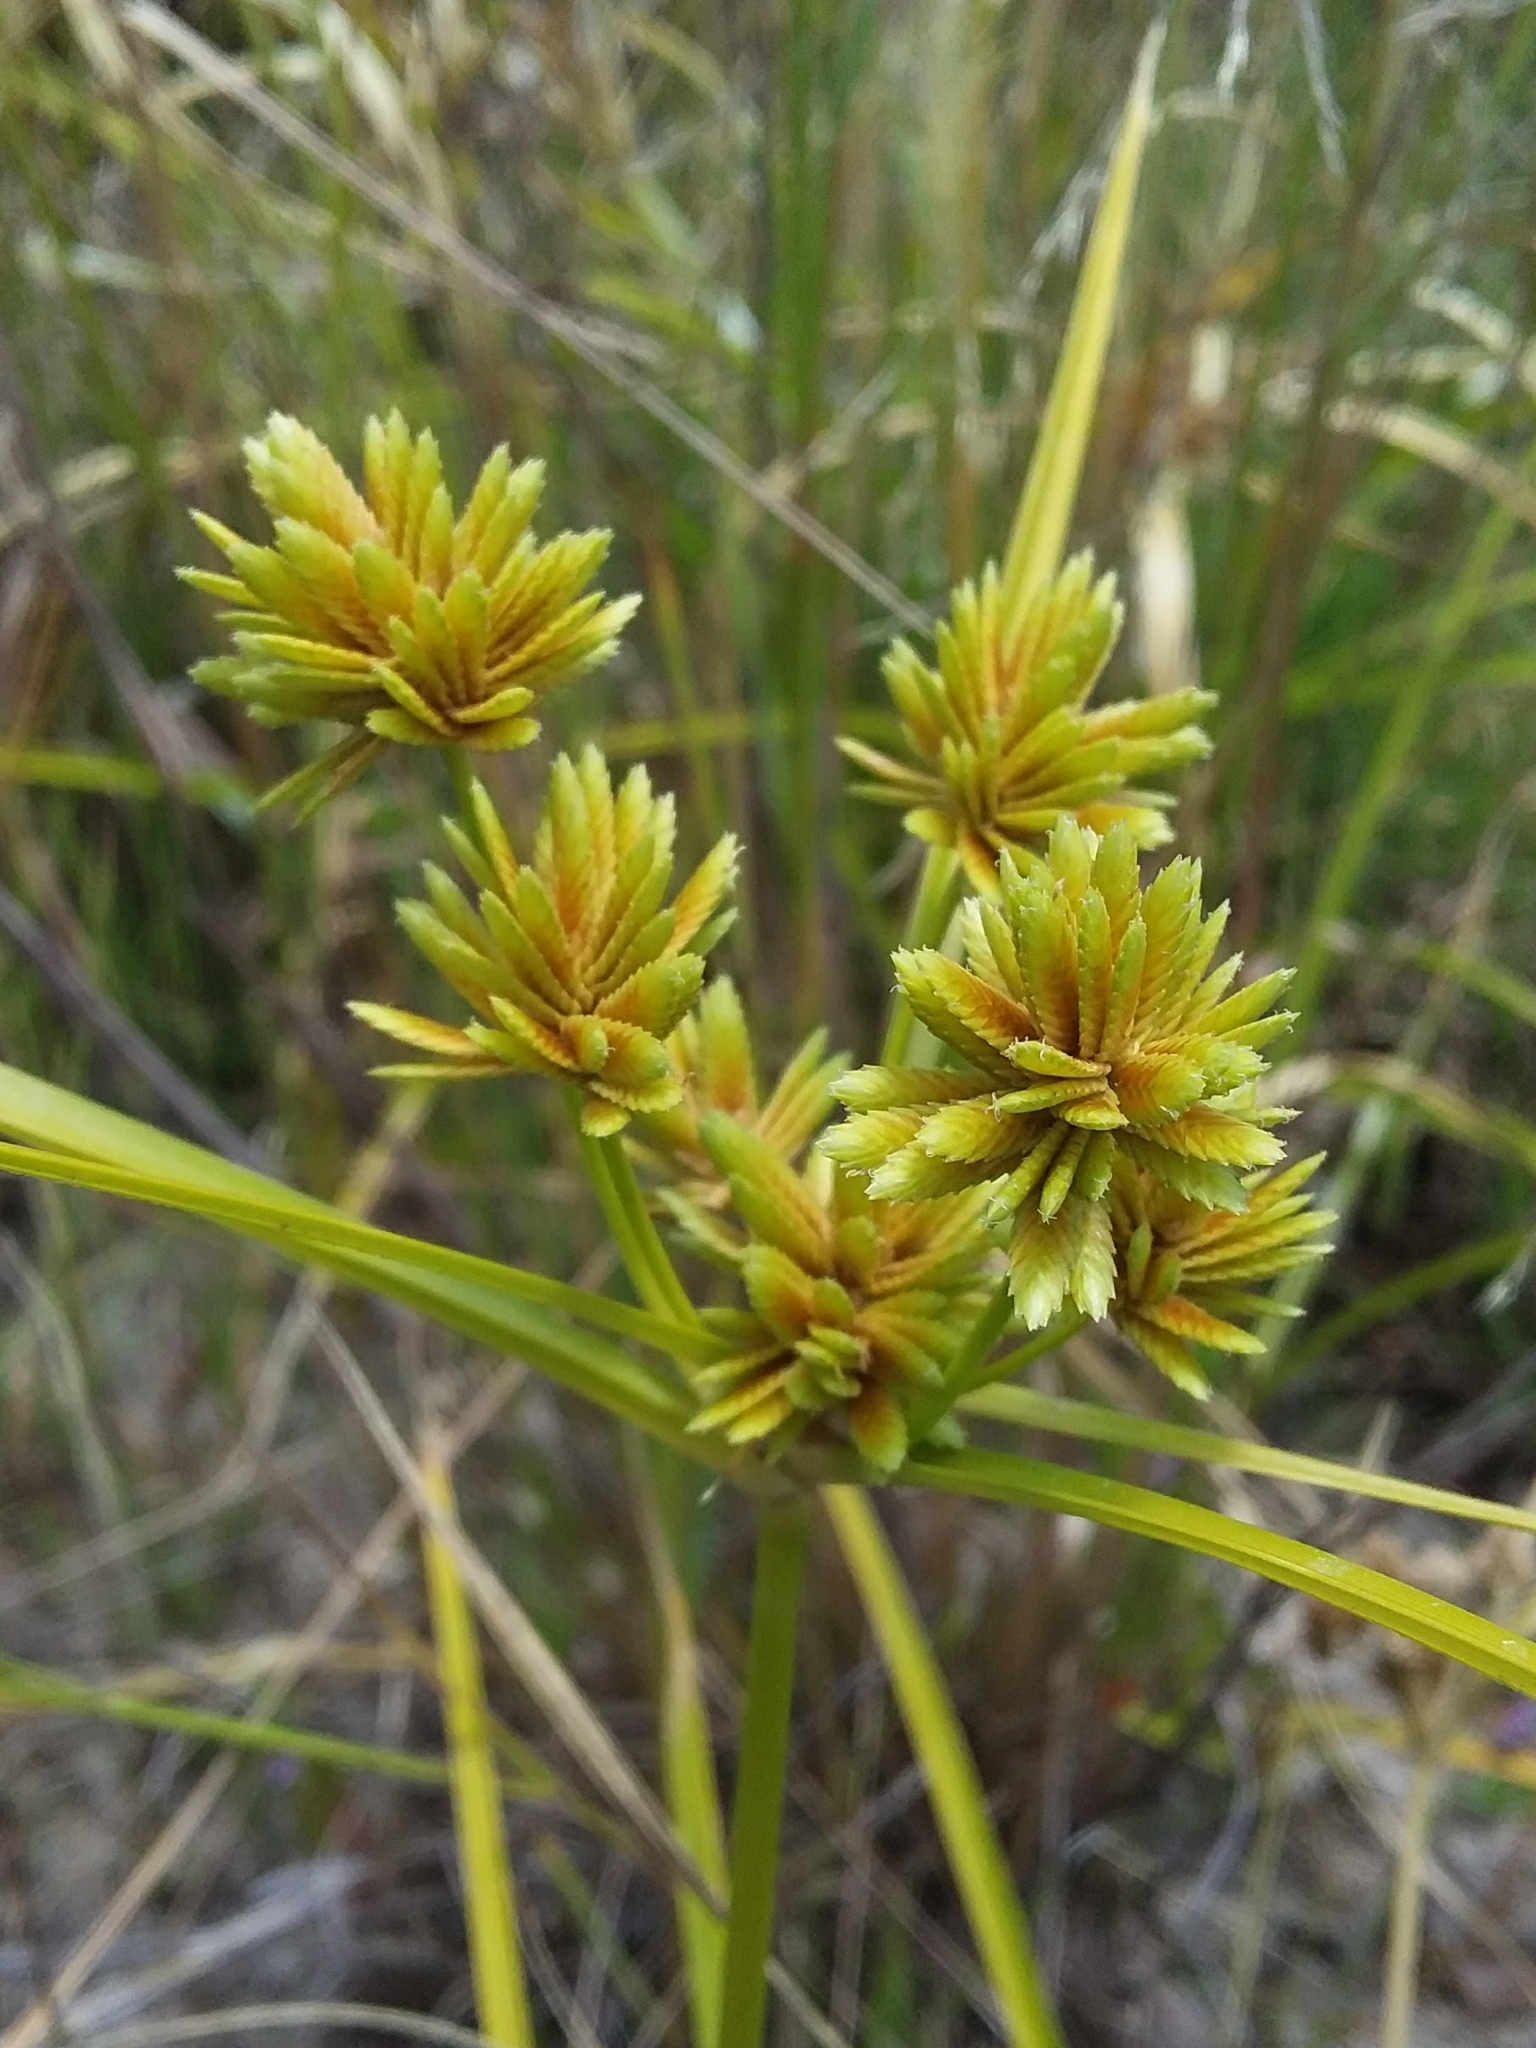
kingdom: Plantae
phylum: Tracheophyta
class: Liliopsida
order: Poales
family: Cyperaceae
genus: Cyperus
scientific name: Cyperus eragrostis
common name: Tall flatsedge
